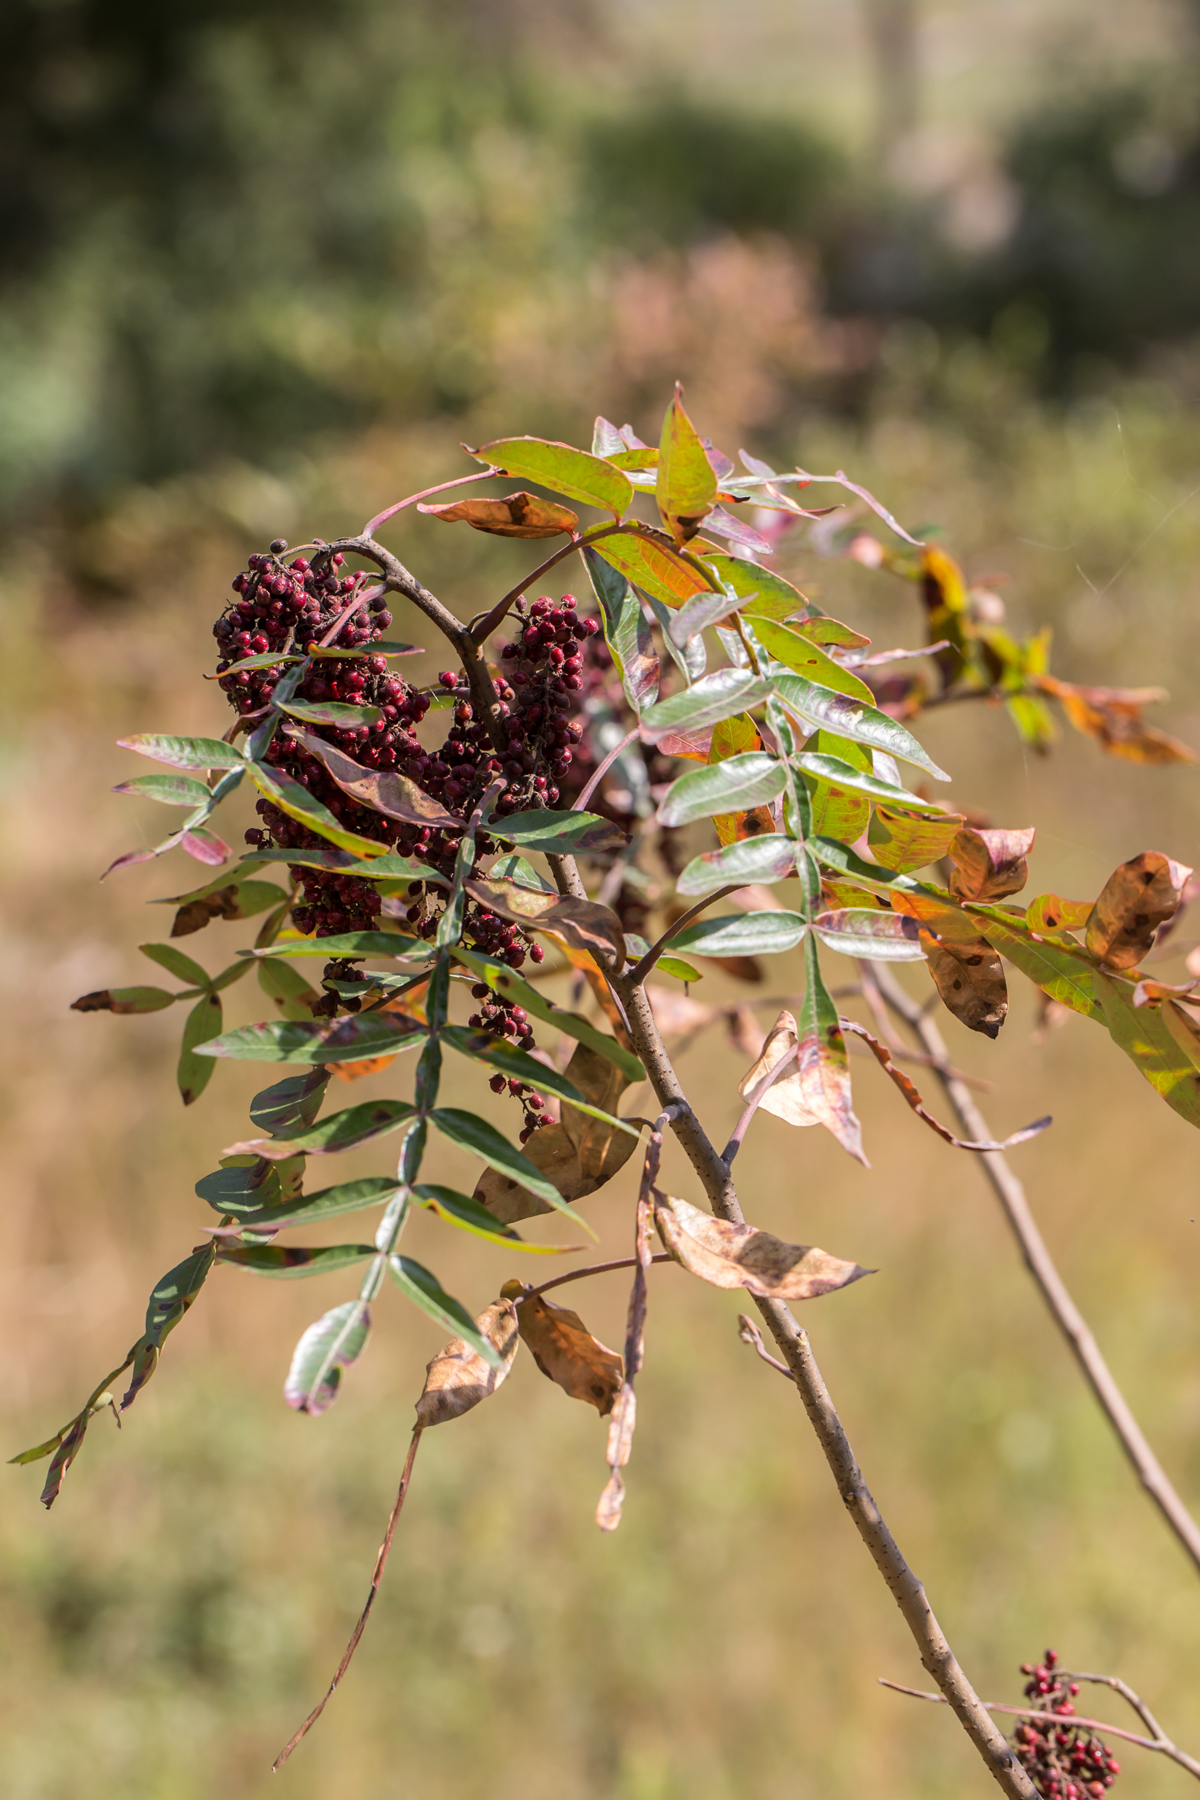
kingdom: Plantae
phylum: Tracheophyta
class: Magnoliopsida
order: Sapindales
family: Anacardiaceae
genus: Rhus
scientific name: Rhus copallina
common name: Shining sumac
